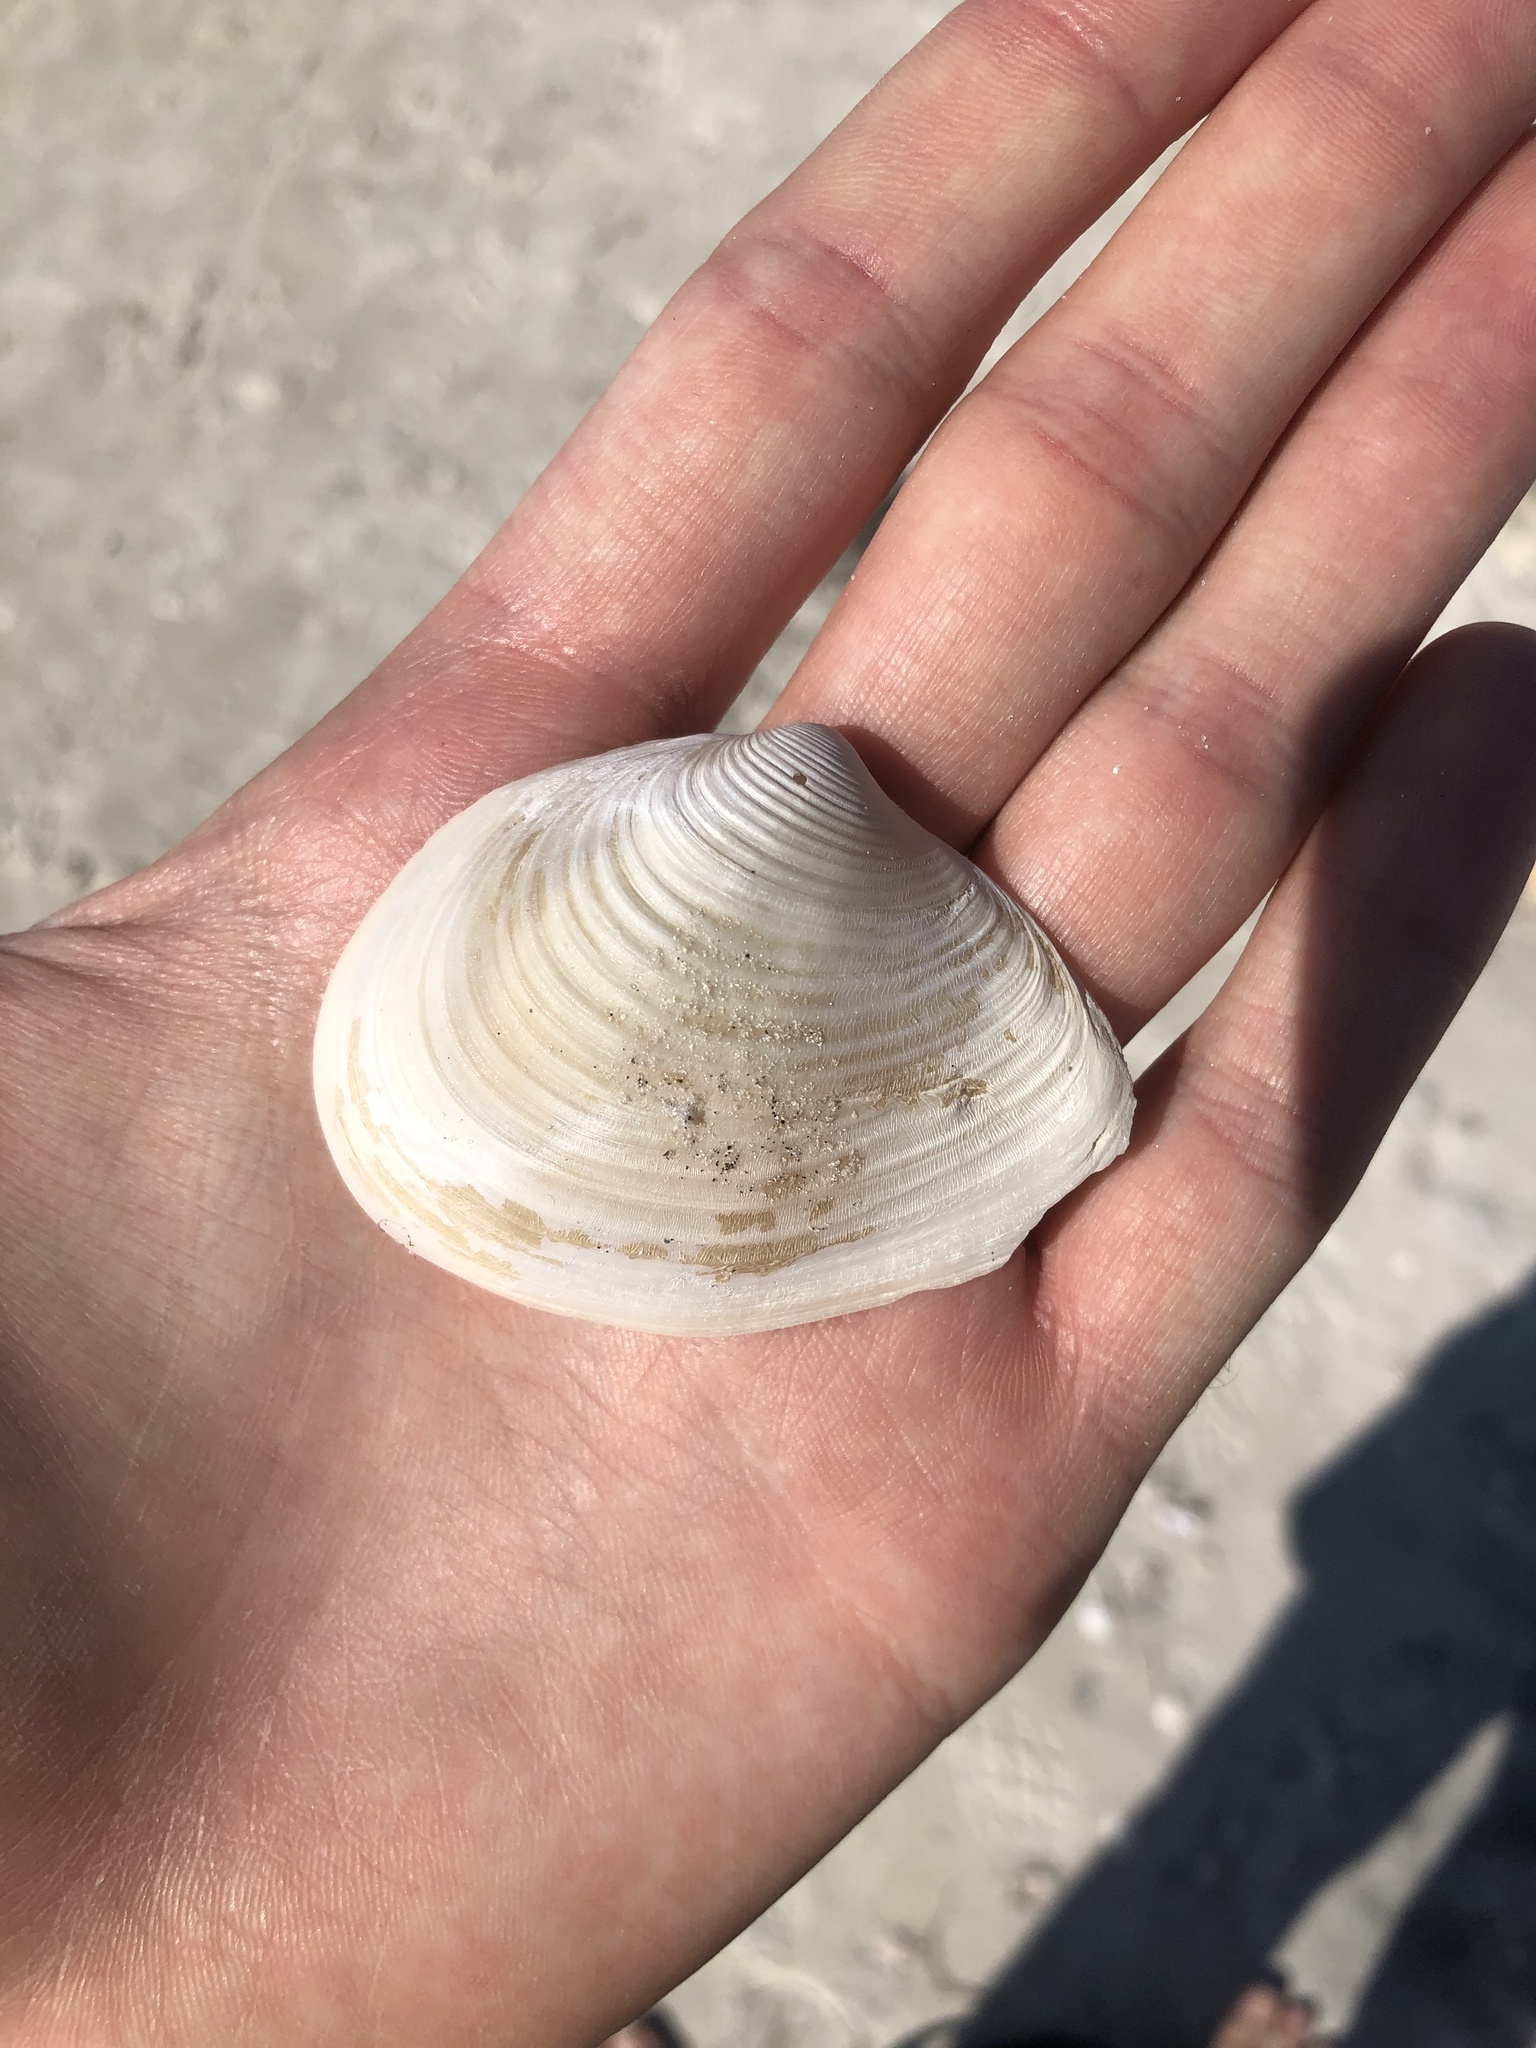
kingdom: Animalia
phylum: Mollusca
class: Bivalvia
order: Venerida
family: Anatinellidae
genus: Raeta
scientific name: Raeta plicatella
